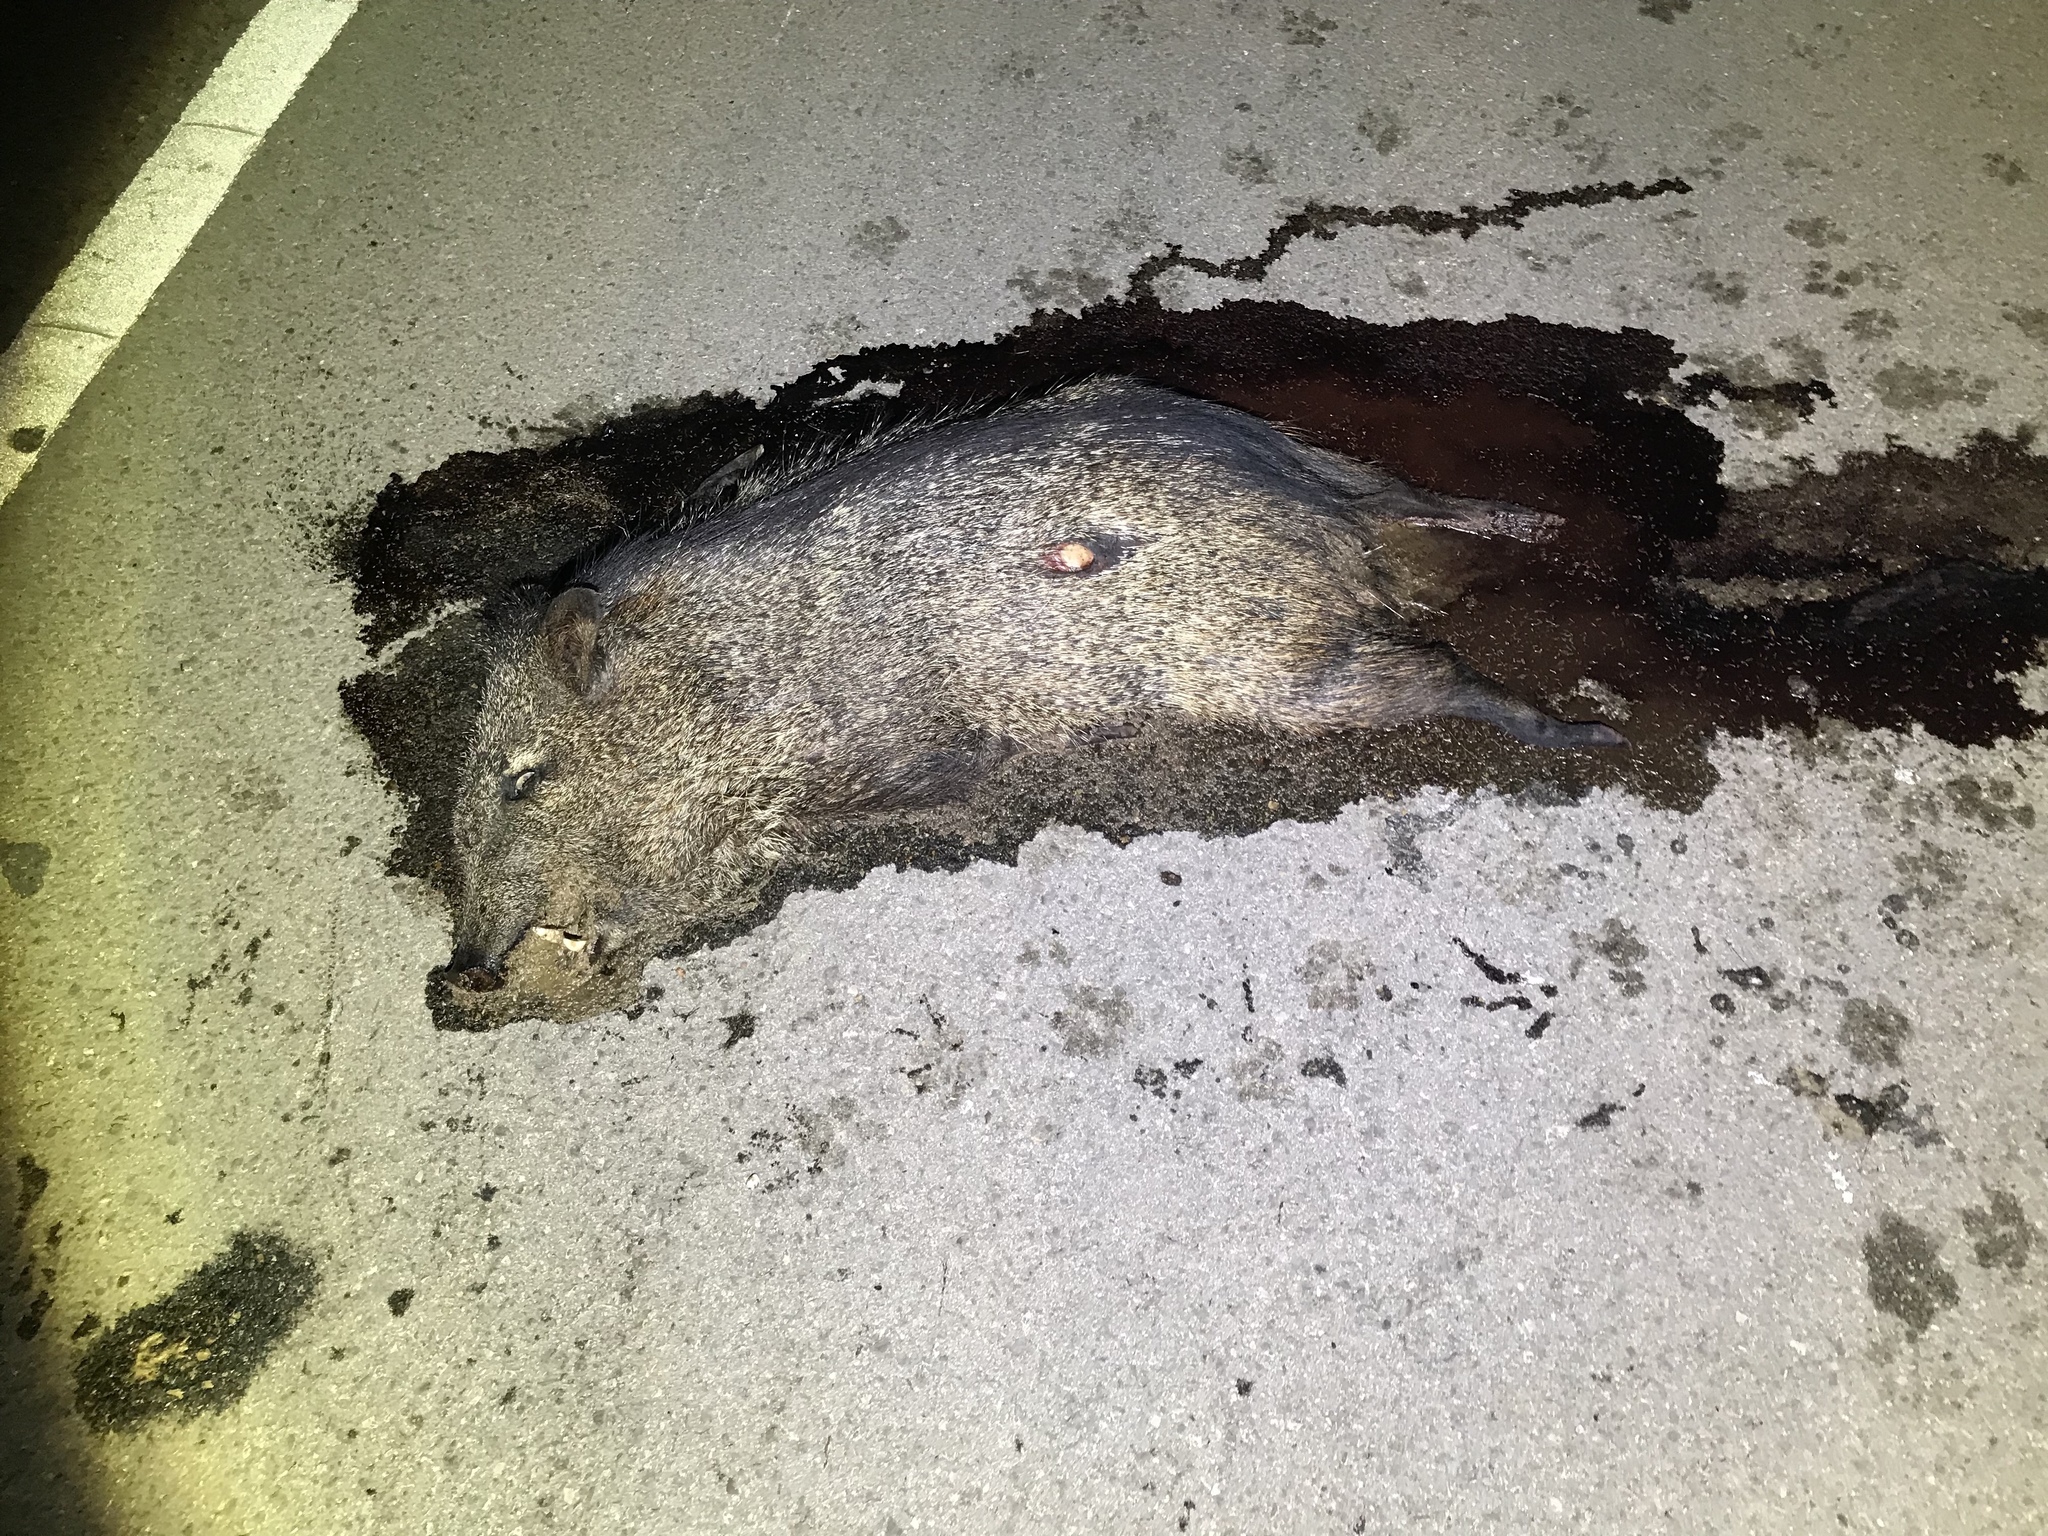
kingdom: Animalia
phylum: Chordata
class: Mammalia
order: Artiodactyla
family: Tayassuidae
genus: Pecari
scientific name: Pecari tajacu
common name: Collared peccary
